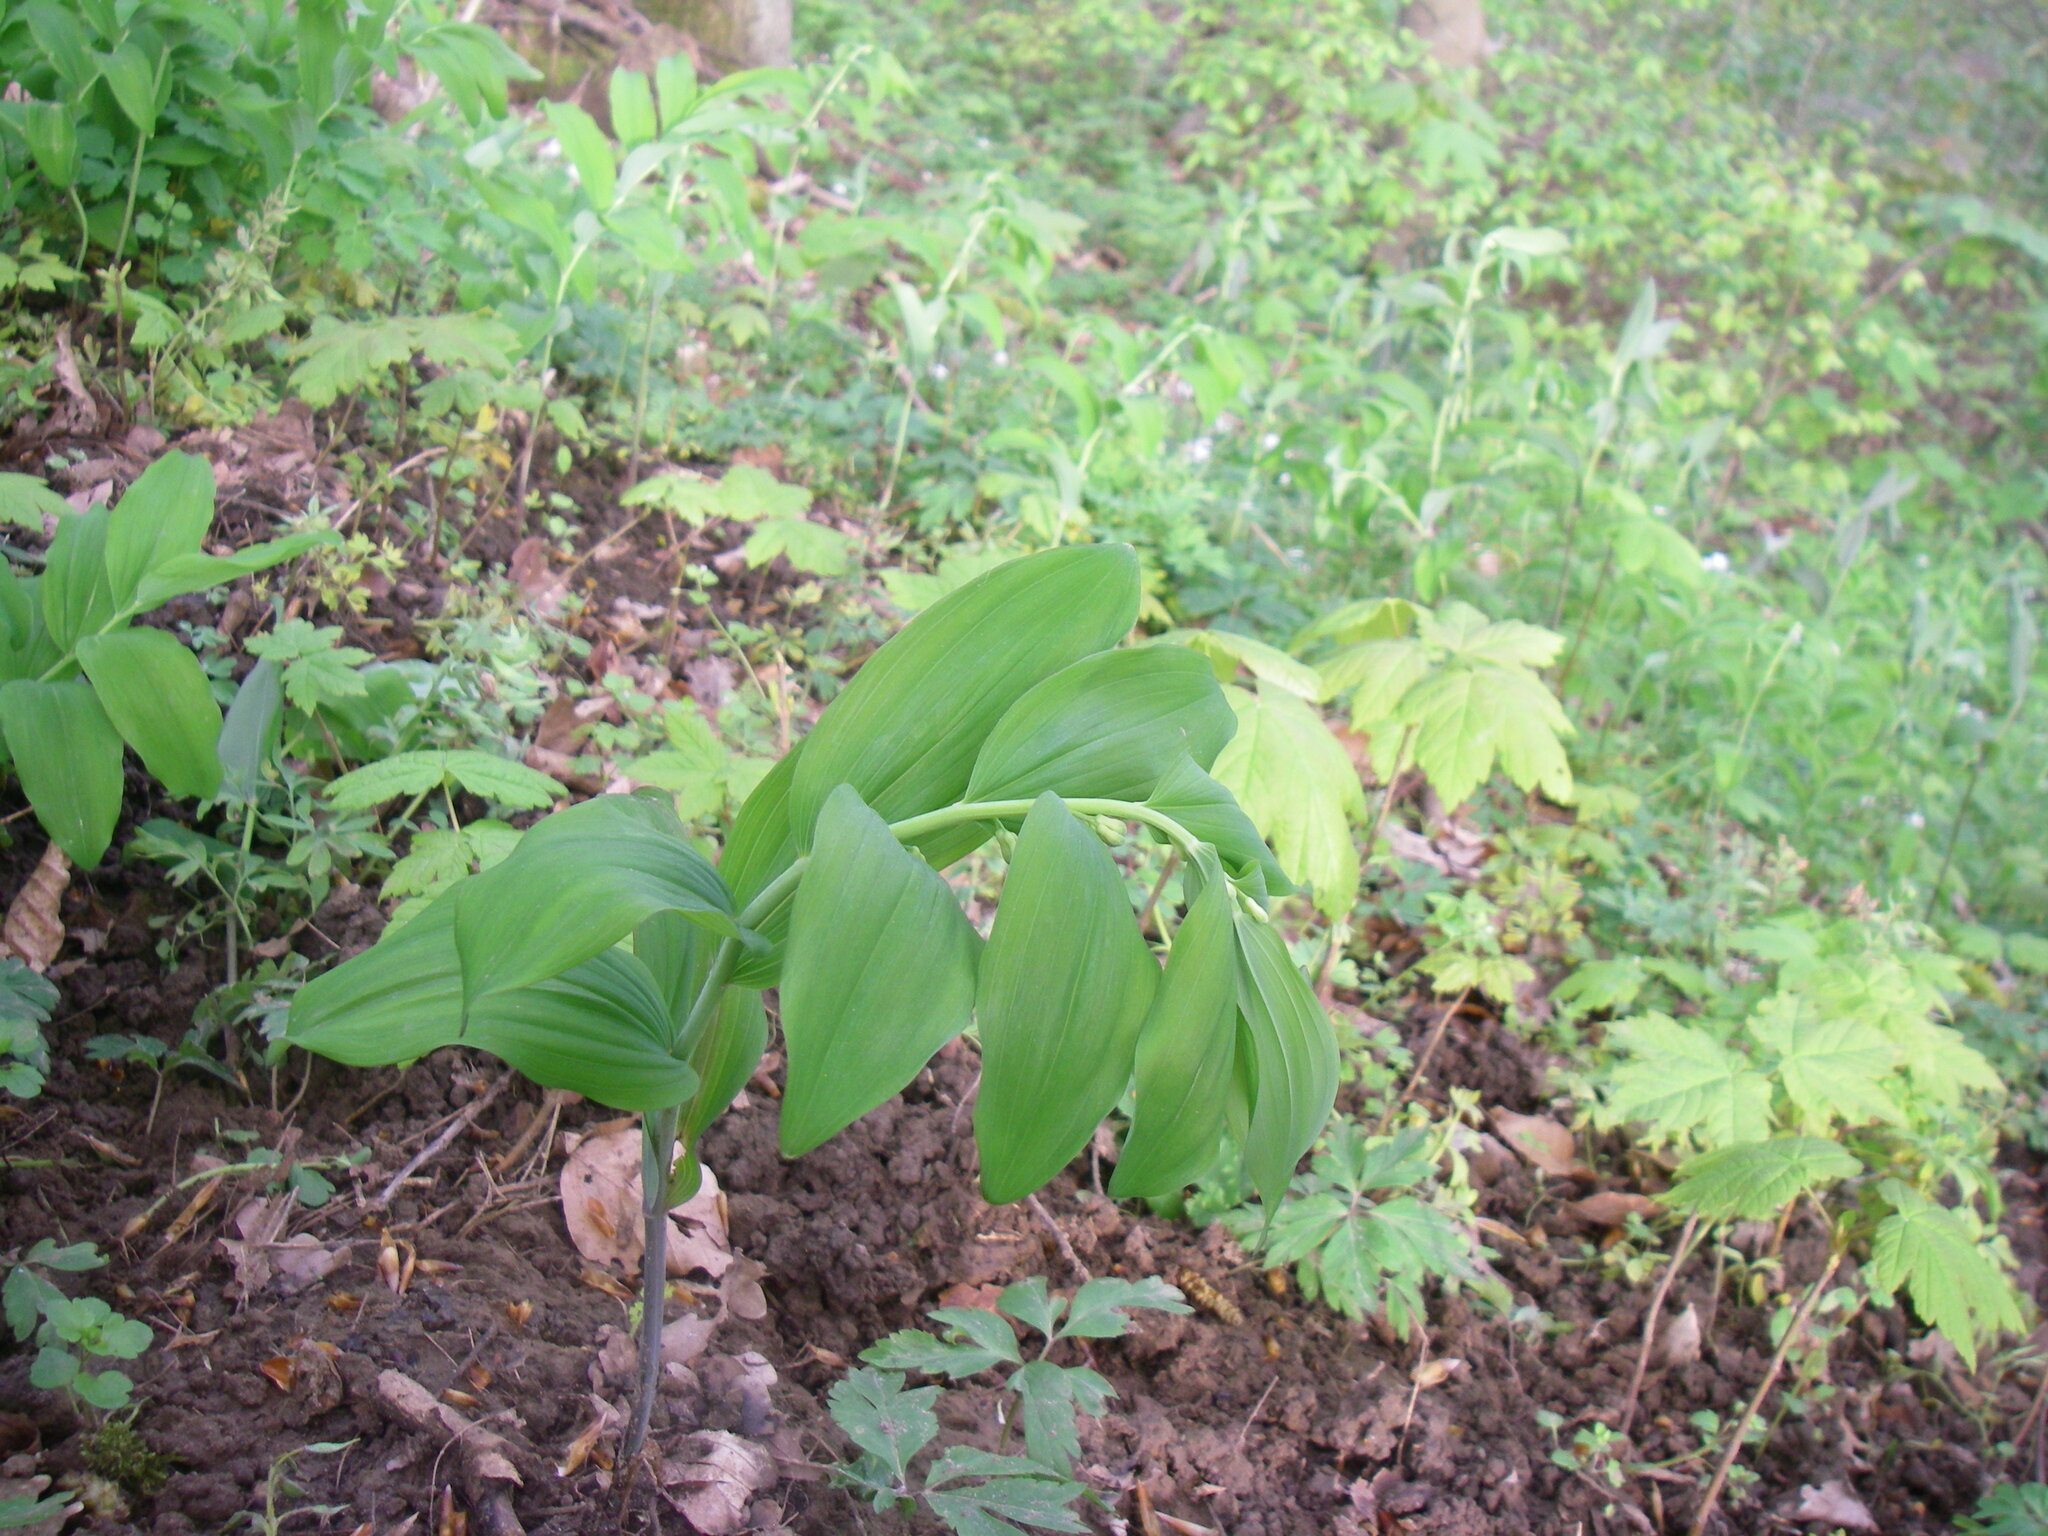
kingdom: Plantae
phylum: Tracheophyta
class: Liliopsida
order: Asparagales
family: Asparagaceae
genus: Polygonatum
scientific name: Polygonatum multiflorum
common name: Solomon's-seal
